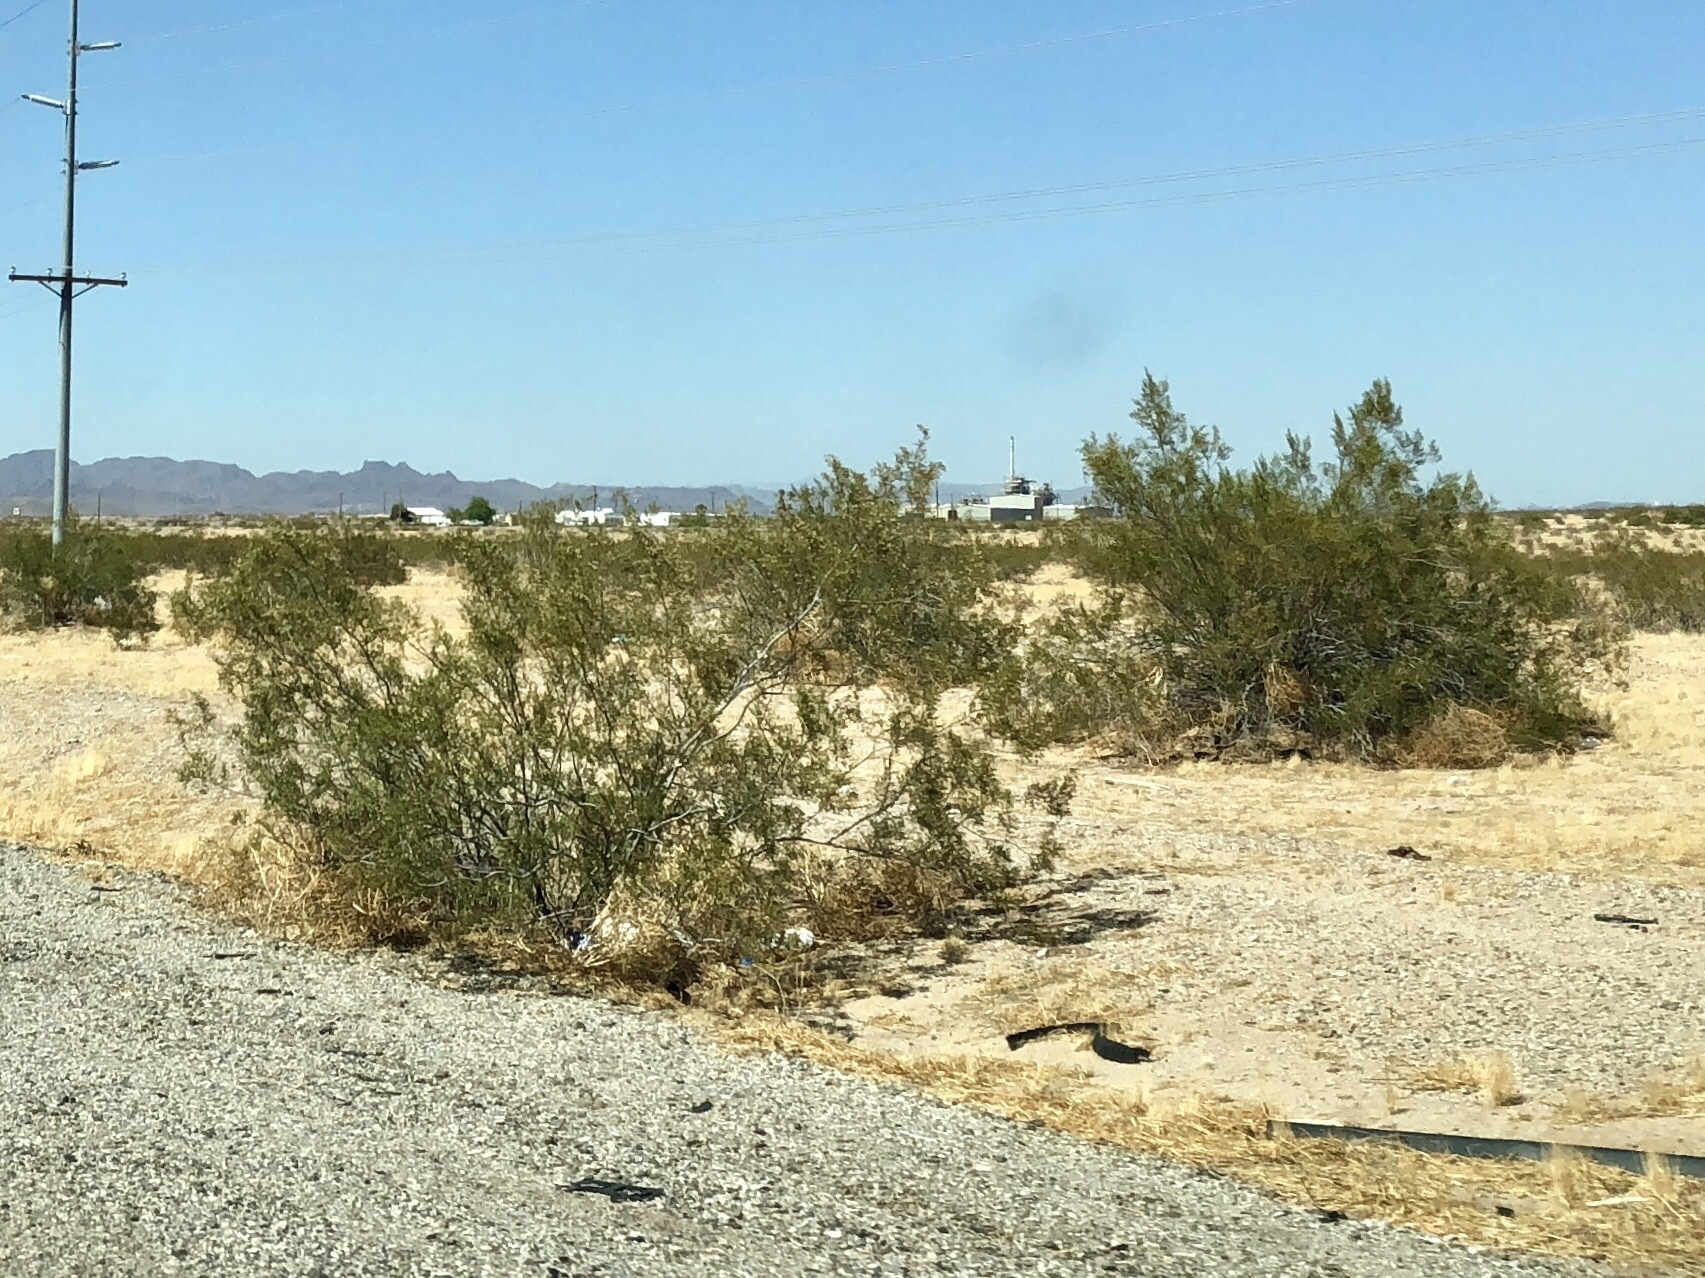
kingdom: Plantae
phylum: Tracheophyta
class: Magnoliopsida
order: Zygophyllales
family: Zygophyllaceae
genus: Larrea
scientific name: Larrea tridentata
